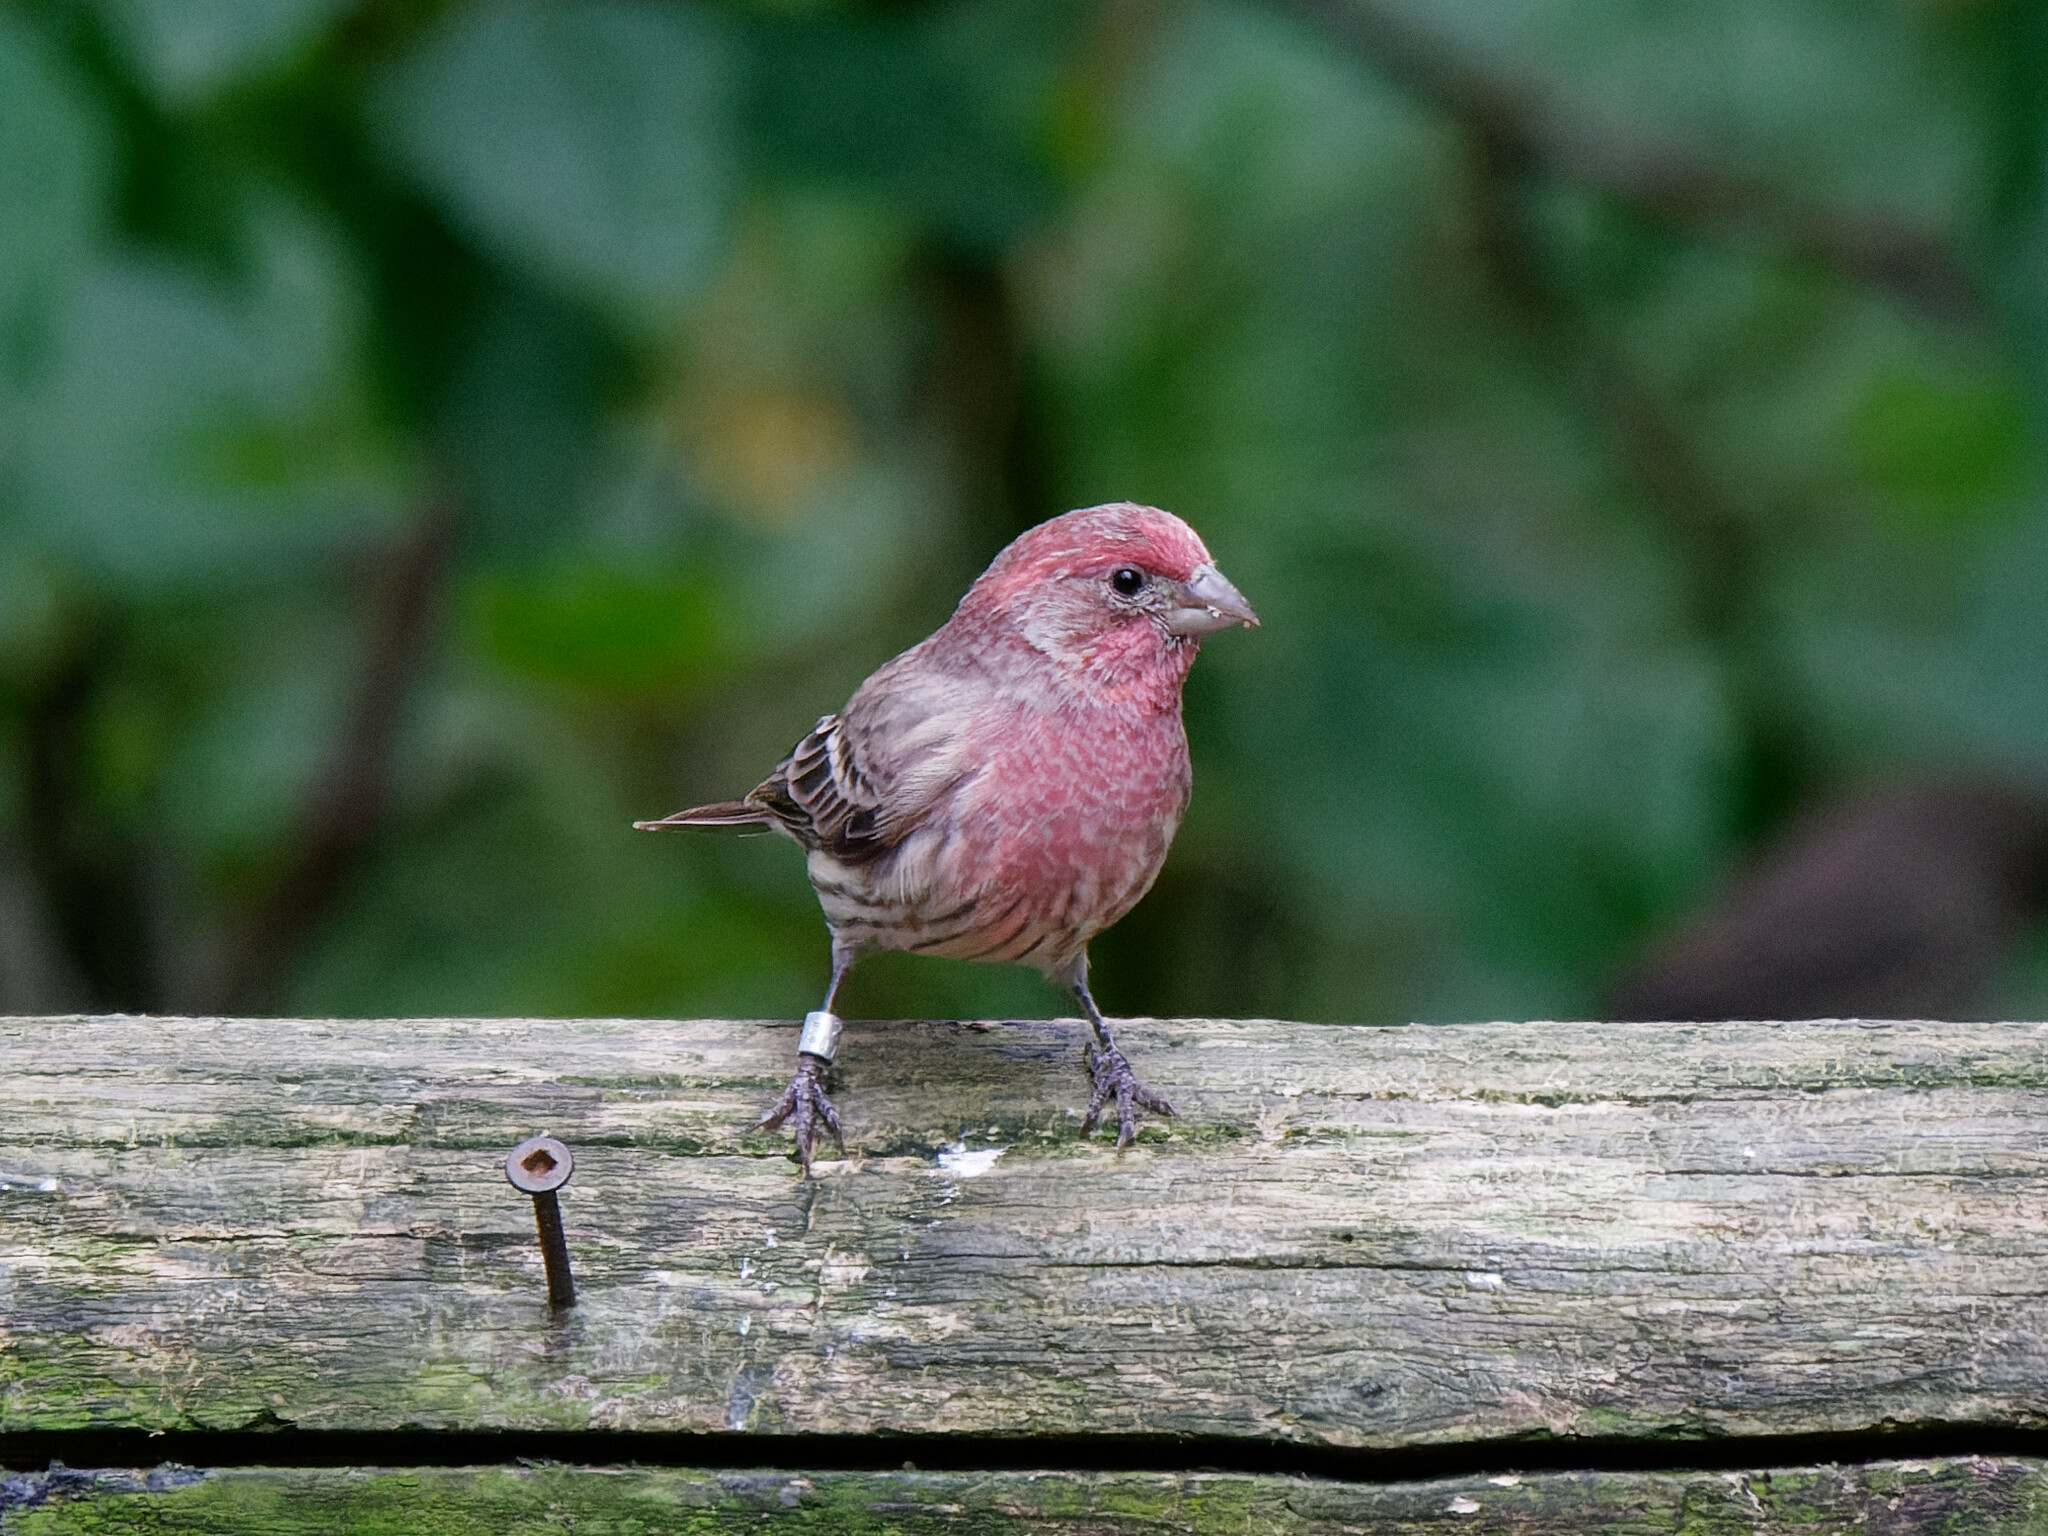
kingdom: Animalia
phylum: Chordata
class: Aves
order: Passeriformes
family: Fringillidae
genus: Haemorhous
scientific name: Haemorhous mexicanus
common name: House finch
